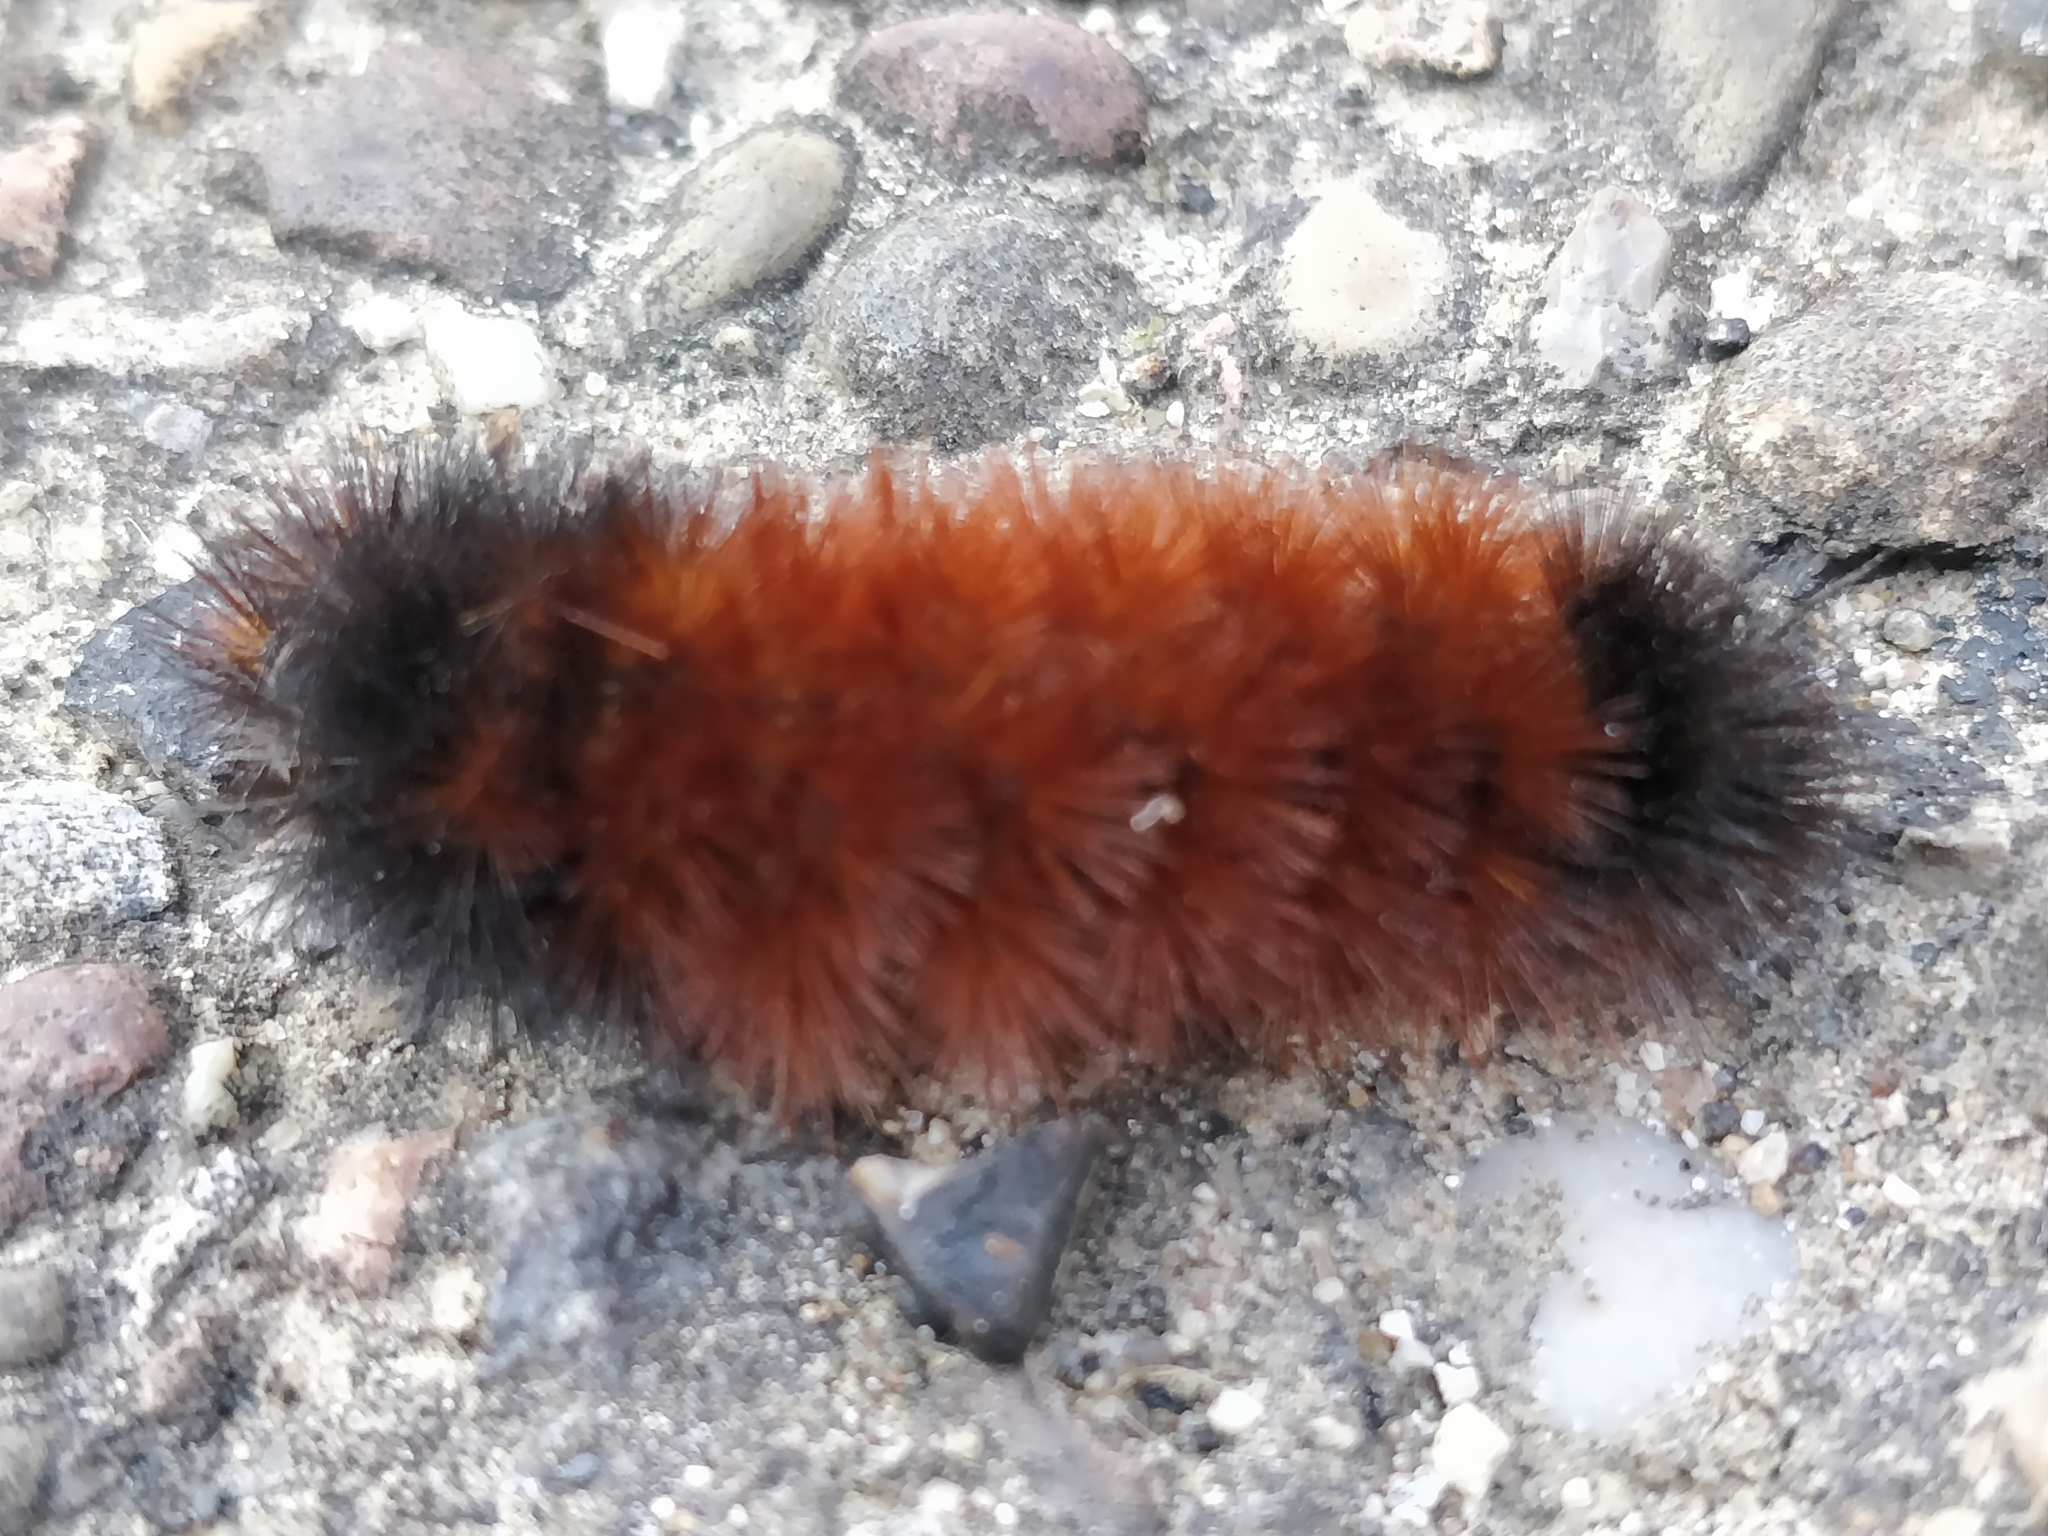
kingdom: Animalia
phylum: Arthropoda
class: Insecta
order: Lepidoptera
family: Erebidae
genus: Pyrrharctia
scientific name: Pyrrharctia isabella
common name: Isabella tiger moth
